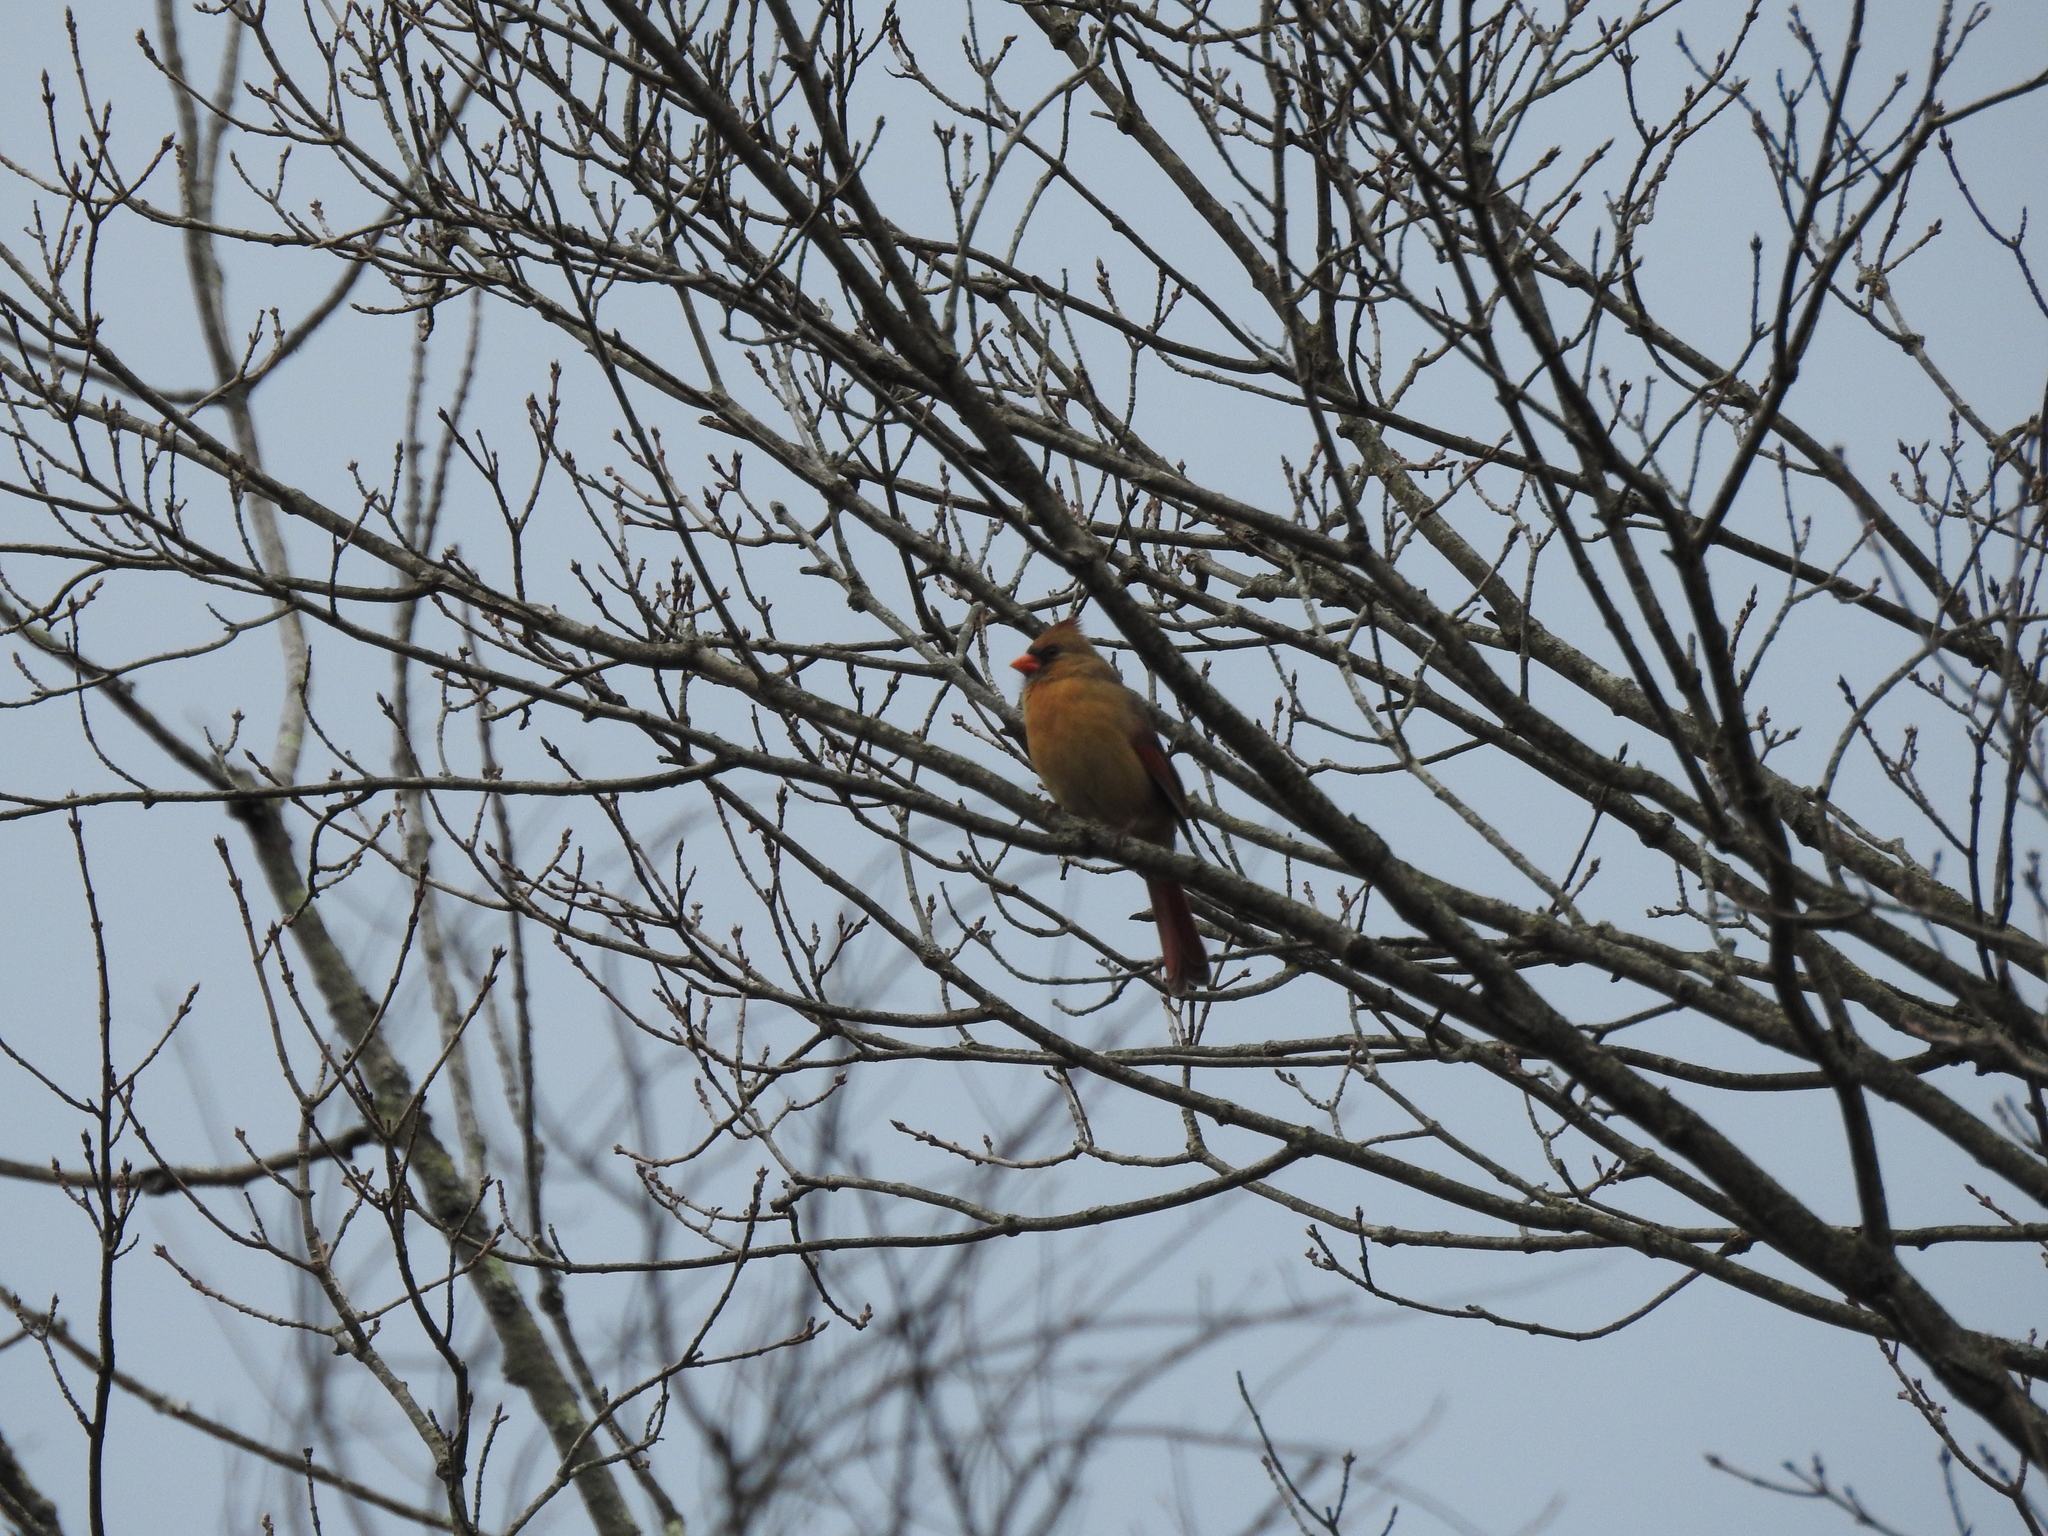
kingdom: Animalia
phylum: Chordata
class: Aves
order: Passeriformes
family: Cardinalidae
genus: Cardinalis
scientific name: Cardinalis cardinalis
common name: Northern cardinal
